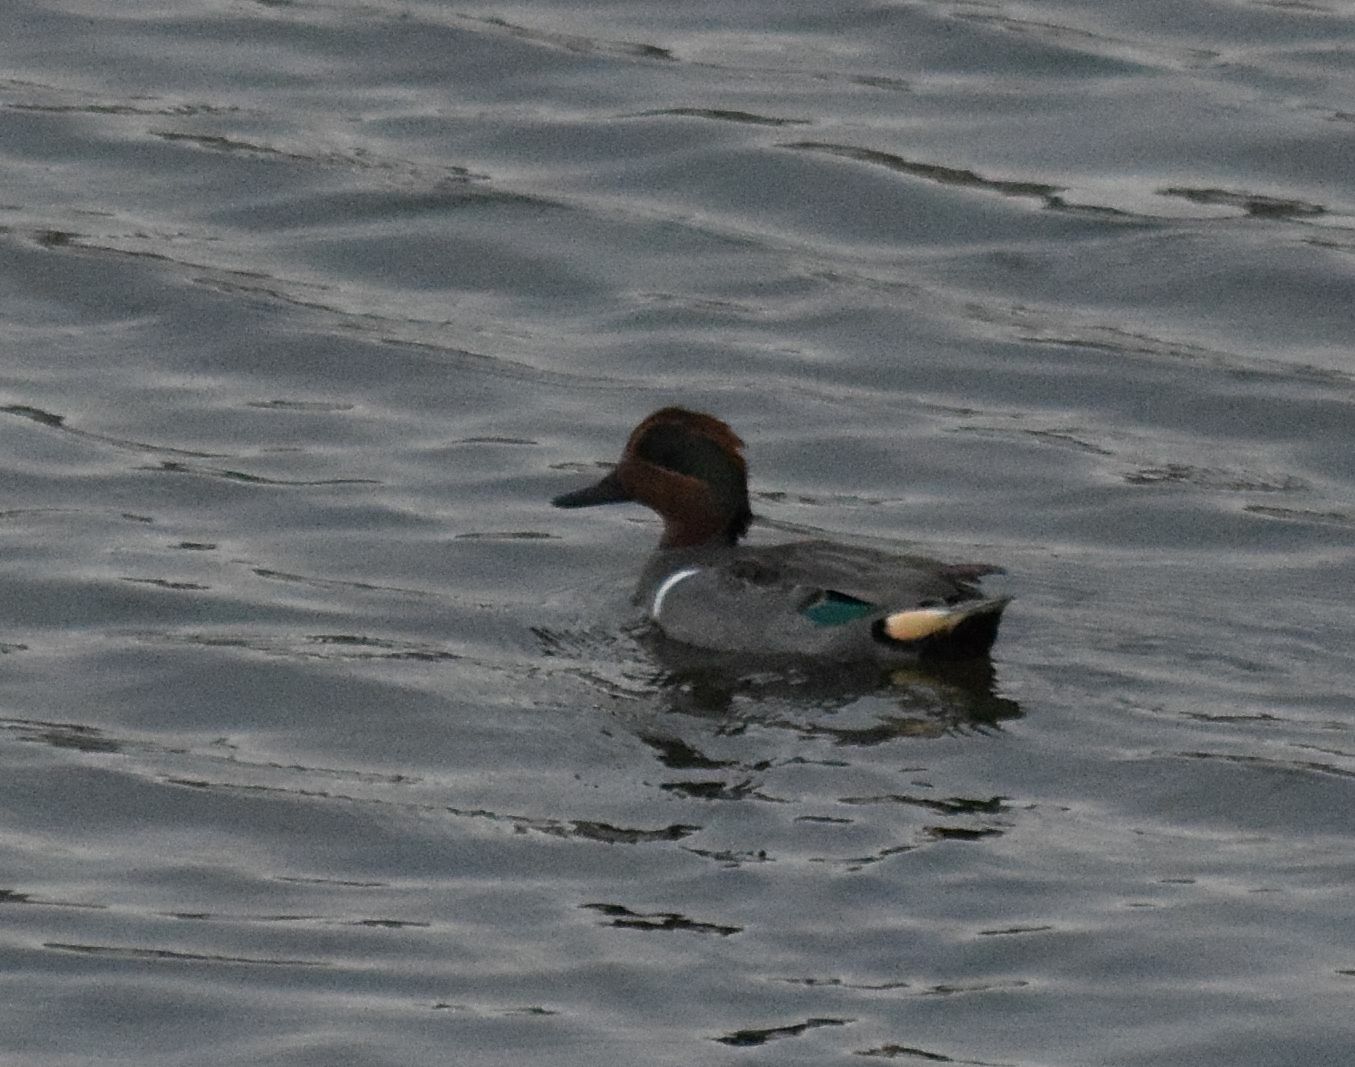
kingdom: Animalia
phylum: Chordata
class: Aves
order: Anseriformes
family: Anatidae
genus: Anas
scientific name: Anas crecca
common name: Eurasian teal
